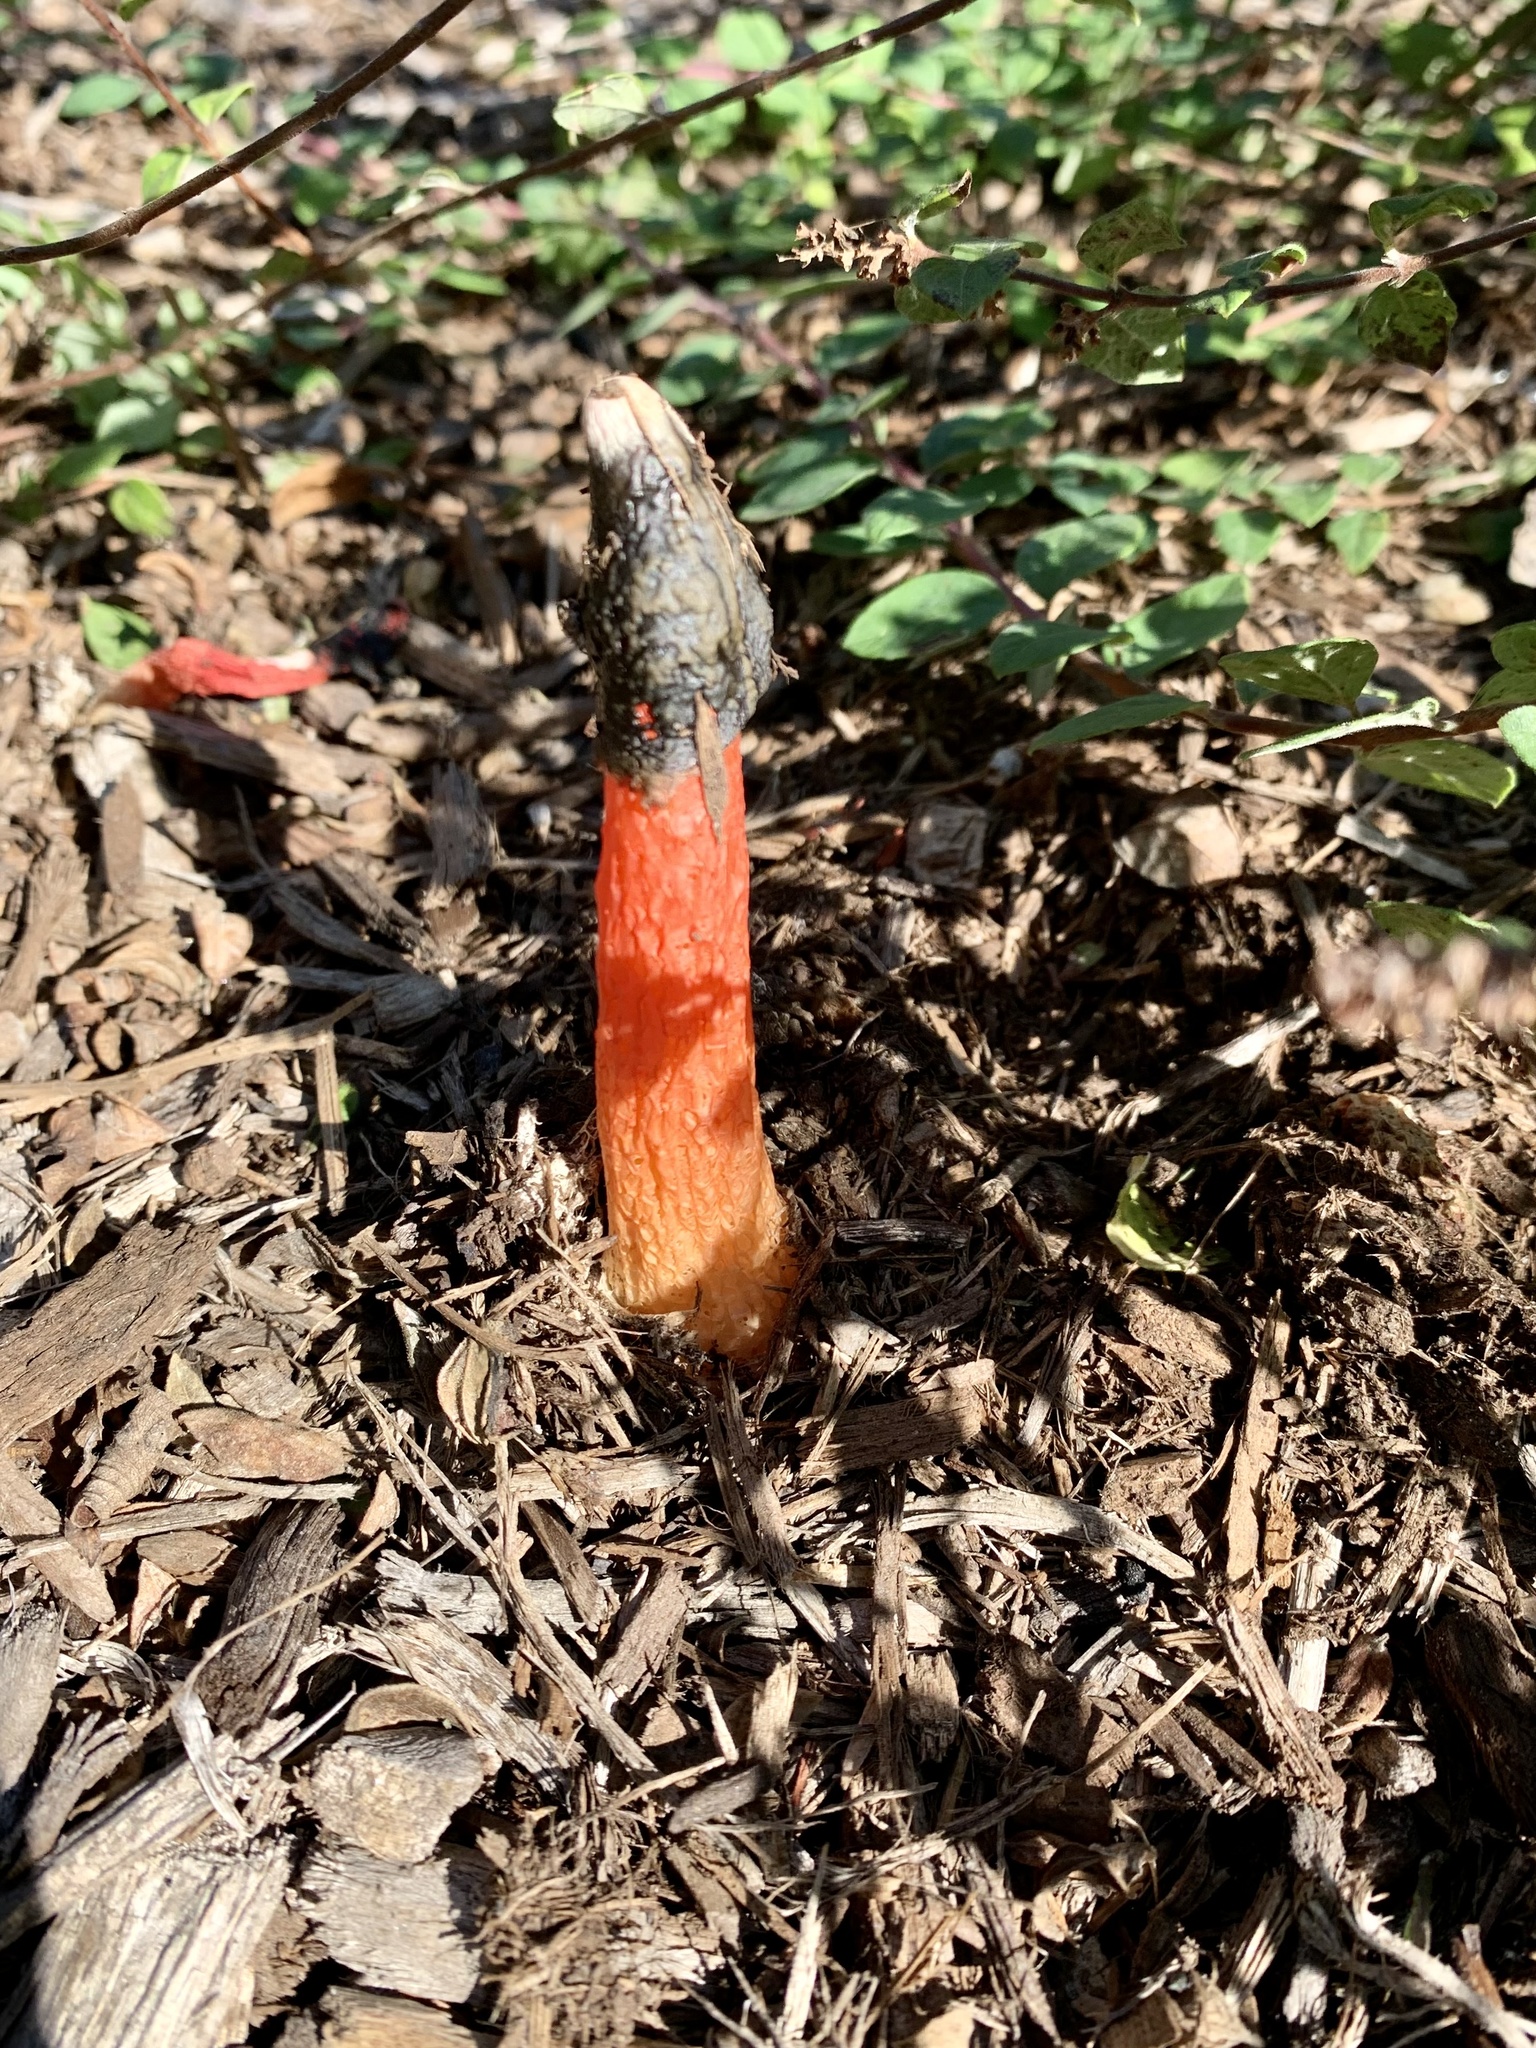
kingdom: Fungi
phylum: Basidiomycota
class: Agaricomycetes
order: Phallales
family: Phallaceae
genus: Phallus
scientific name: Phallus rugulosus
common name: Wrinkly stinkhorn
